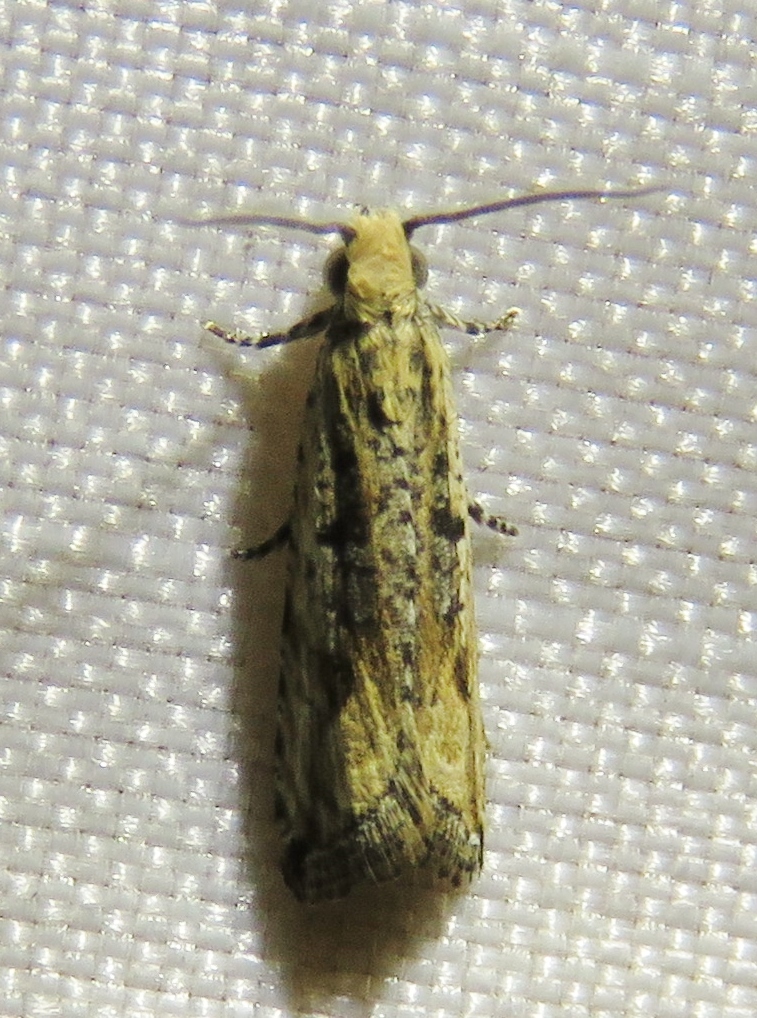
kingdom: Animalia
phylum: Arthropoda
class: Insecta
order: Lepidoptera
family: Tortricidae
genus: Bactra
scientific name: Bactra verutana
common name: Javelin moth
